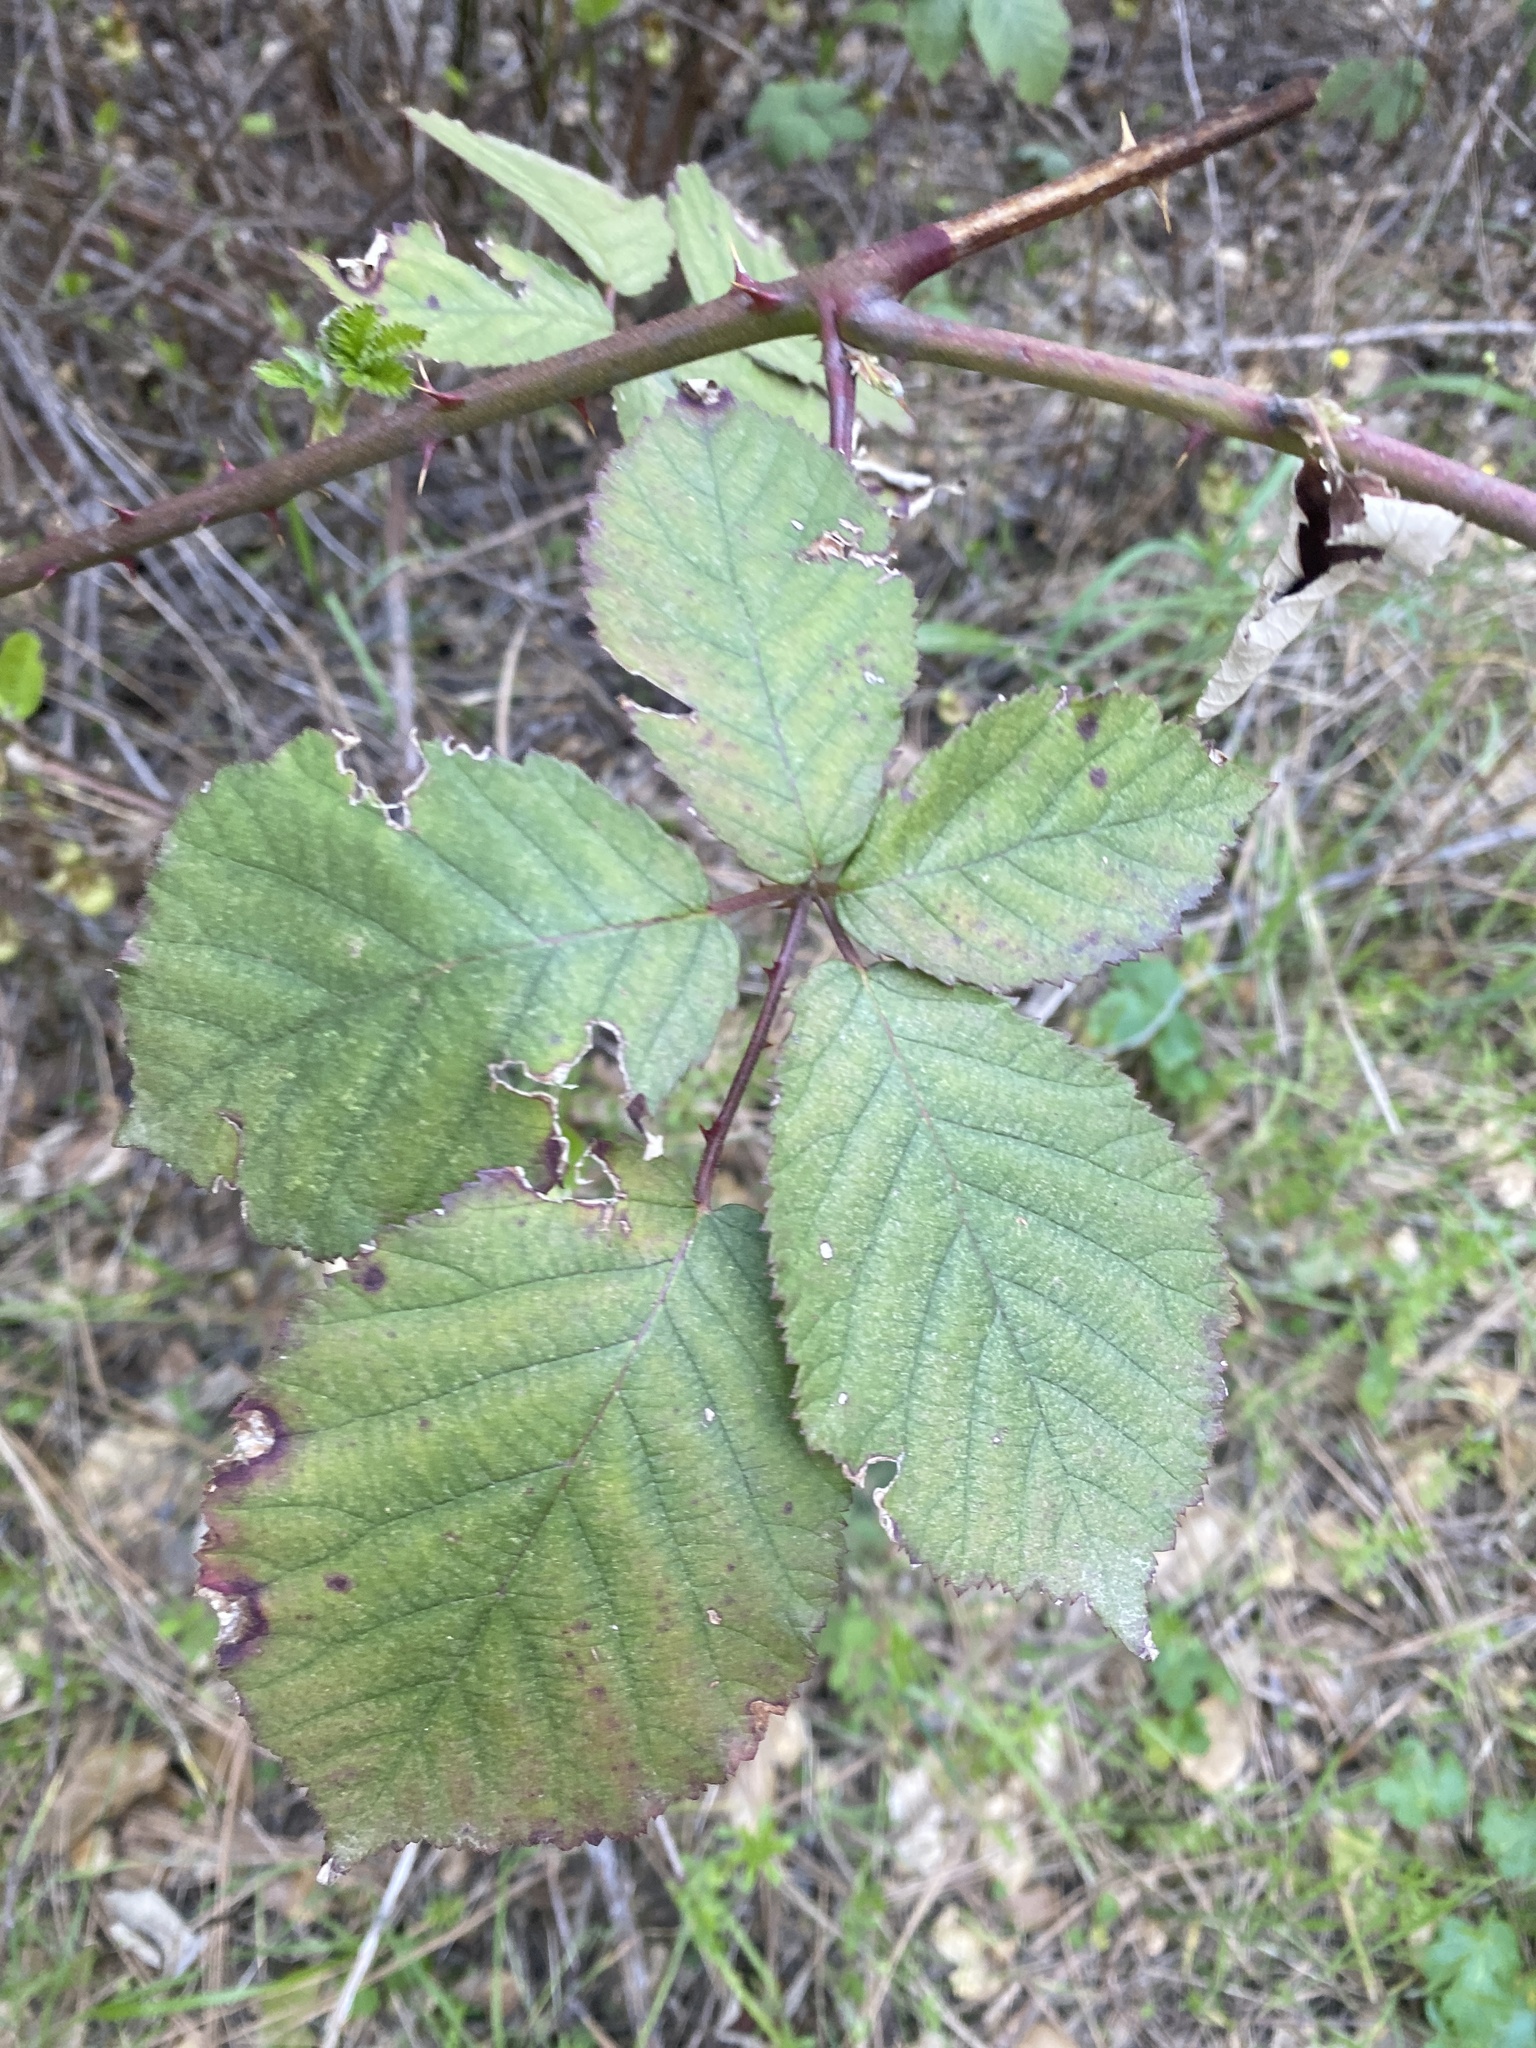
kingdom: Plantae
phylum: Tracheophyta
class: Magnoliopsida
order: Rosales
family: Rosaceae
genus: Rubus
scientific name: Rubus armeniacus
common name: Himalayan blackberry
